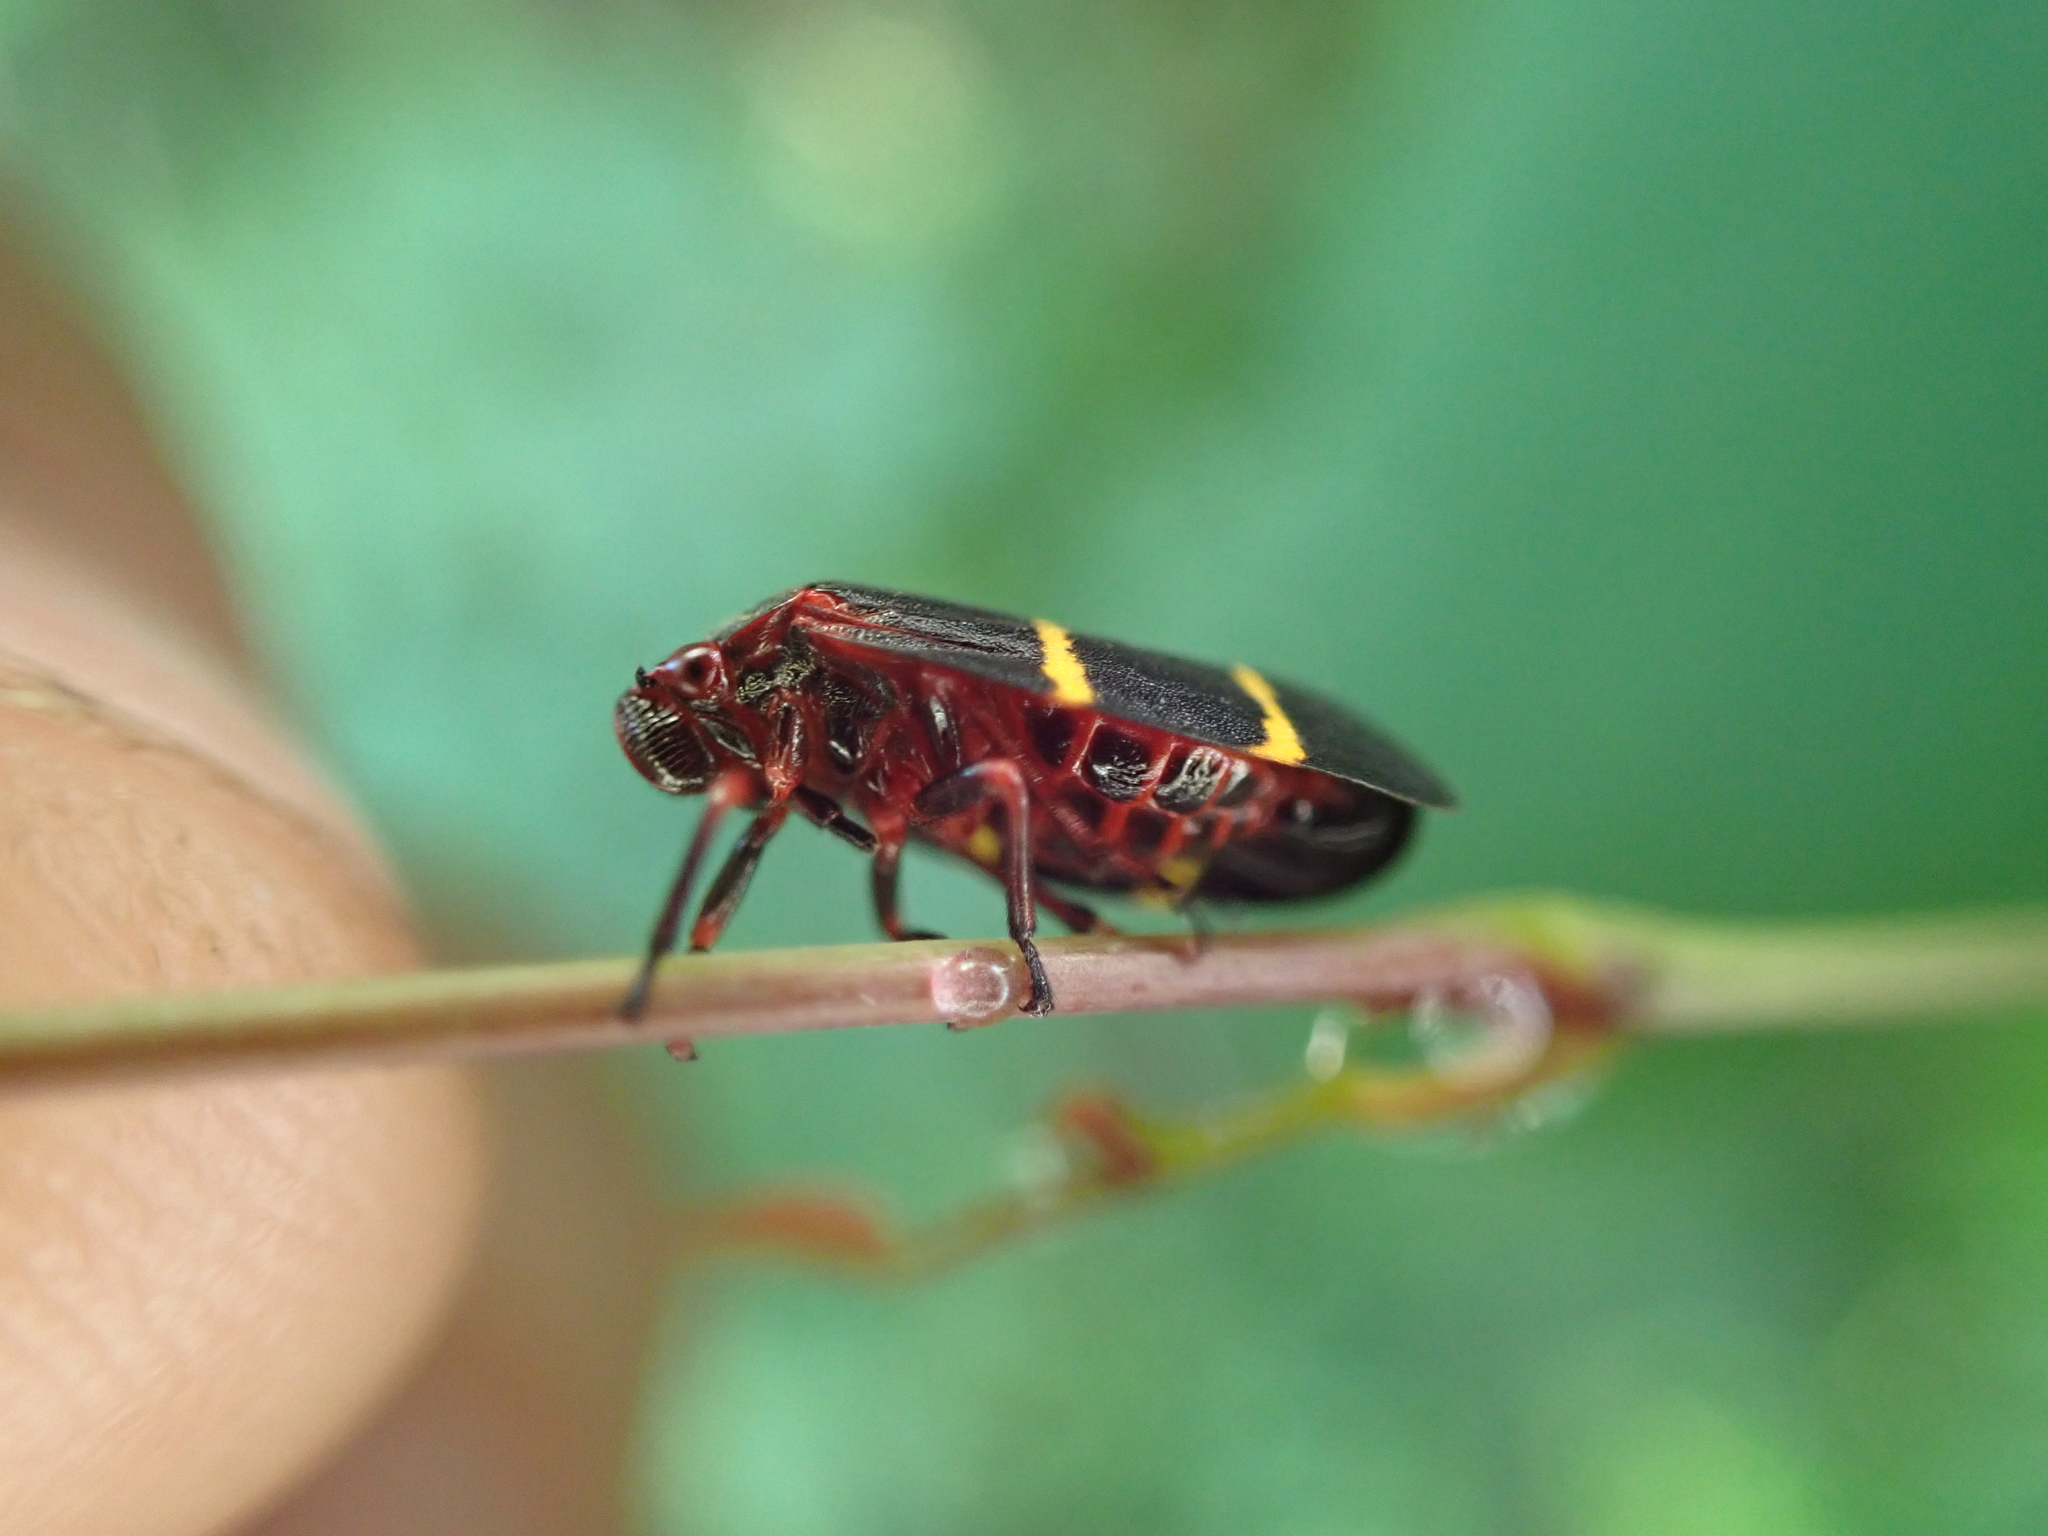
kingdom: Animalia
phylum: Arthropoda
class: Insecta
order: Hemiptera
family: Cercopidae
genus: Prosapia
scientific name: Prosapia bicincta
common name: Twolined spittlebug
